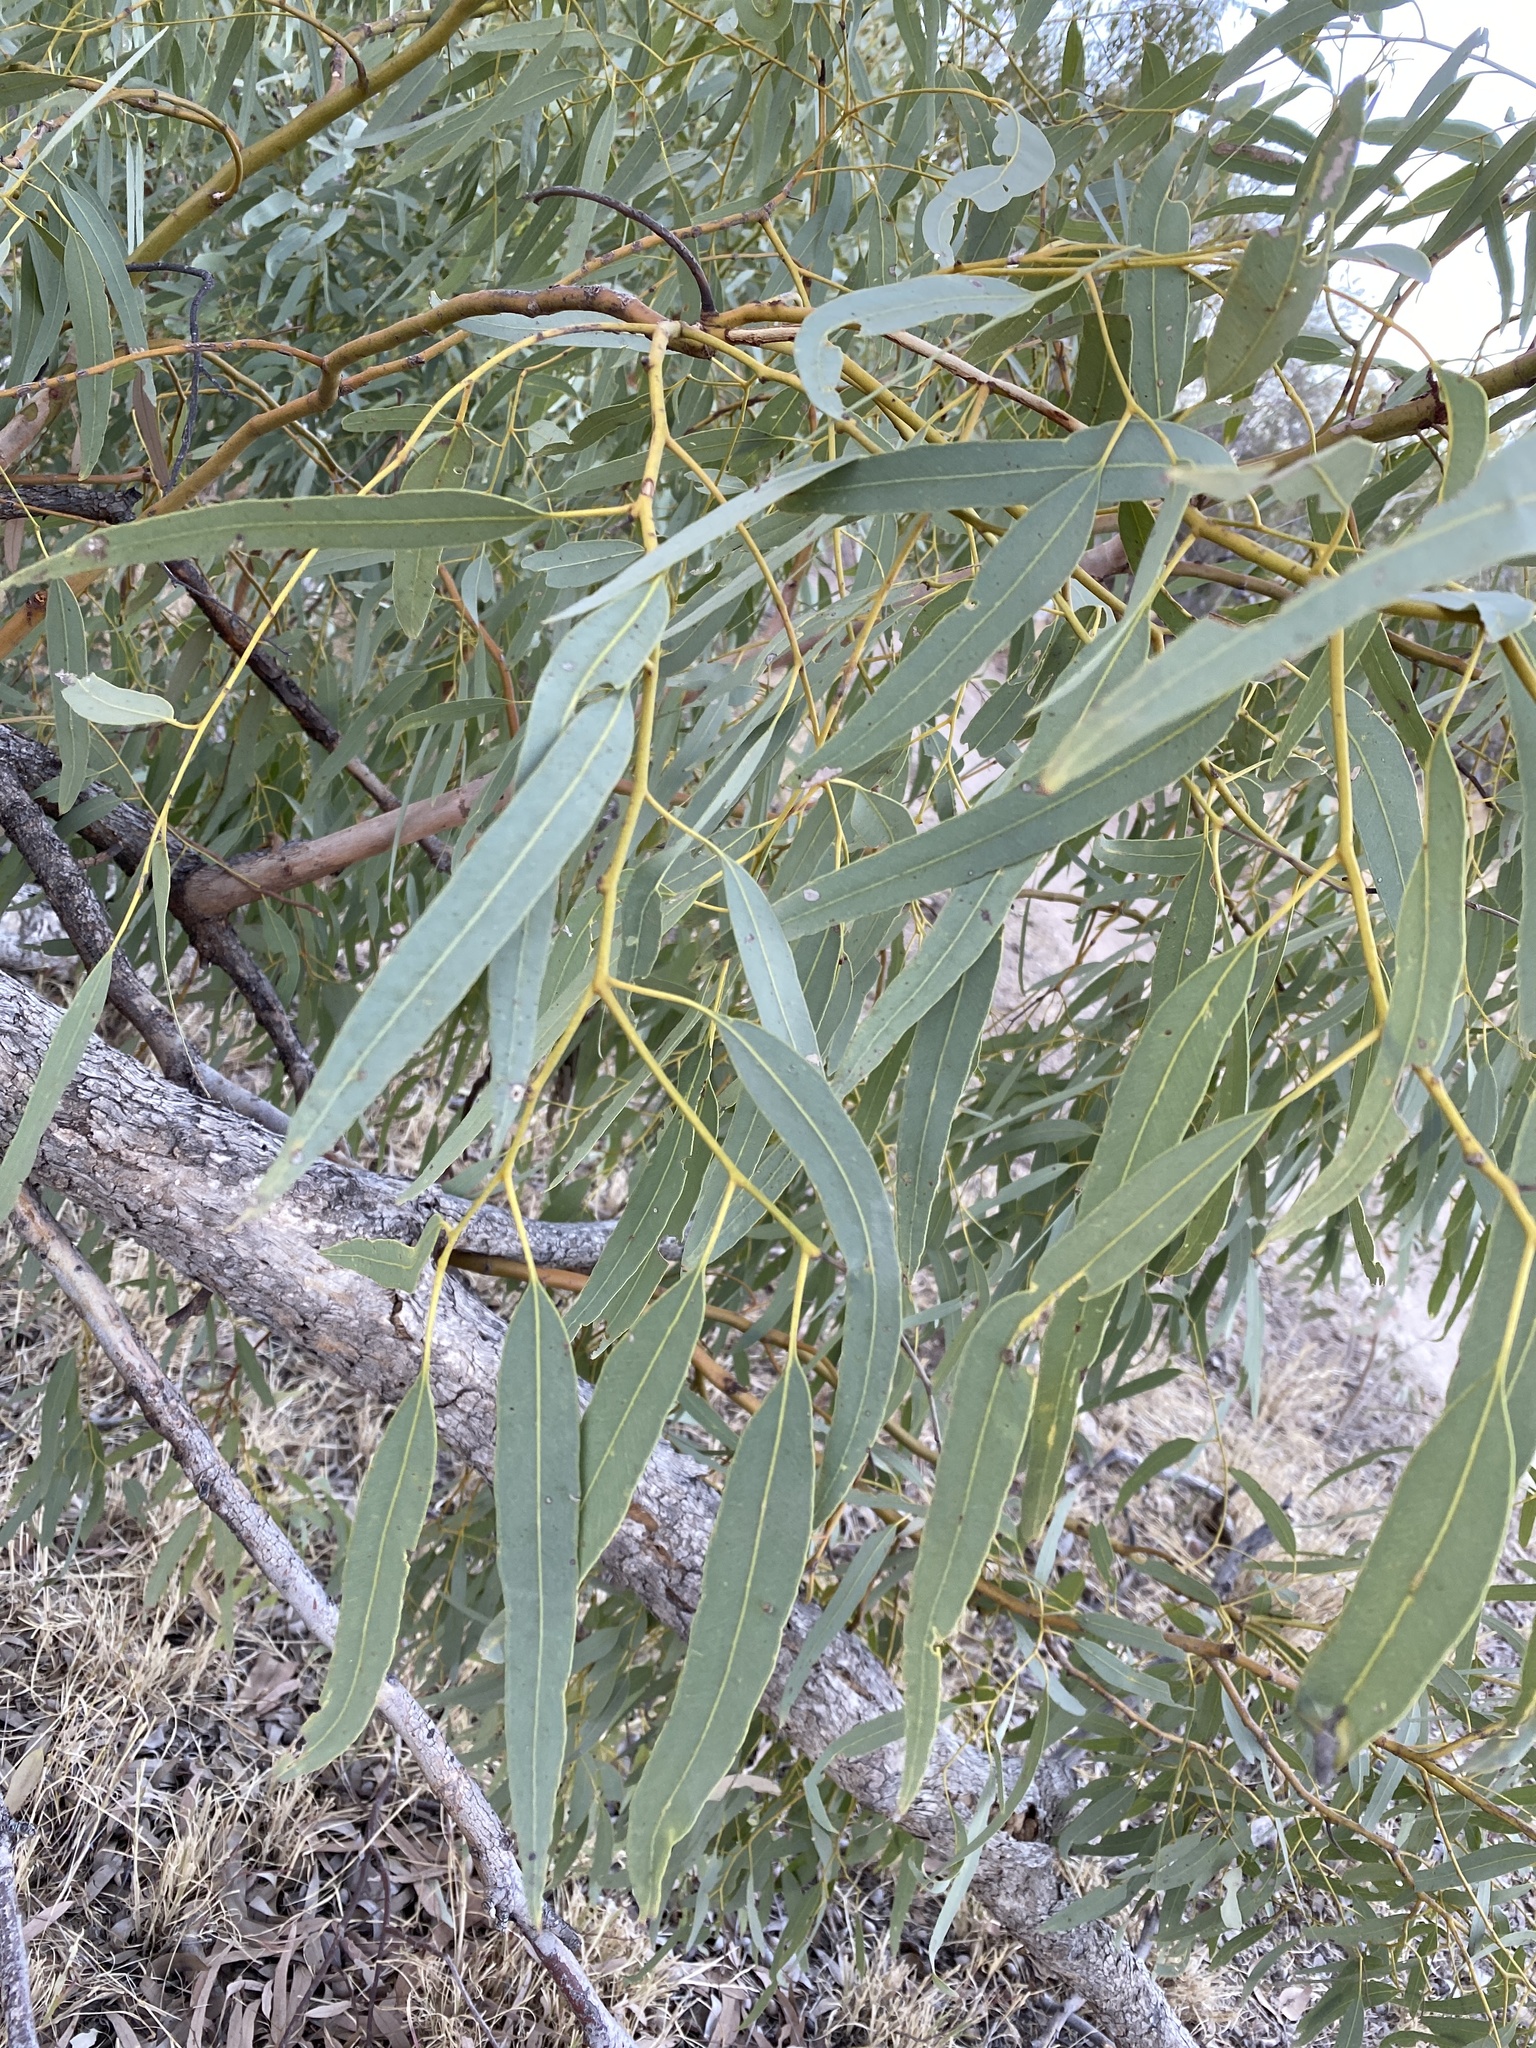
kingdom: Plantae
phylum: Tracheophyta
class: Magnoliopsida
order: Myrtales
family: Myrtaceae
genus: Corymbia
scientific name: Corymbia terminalis
